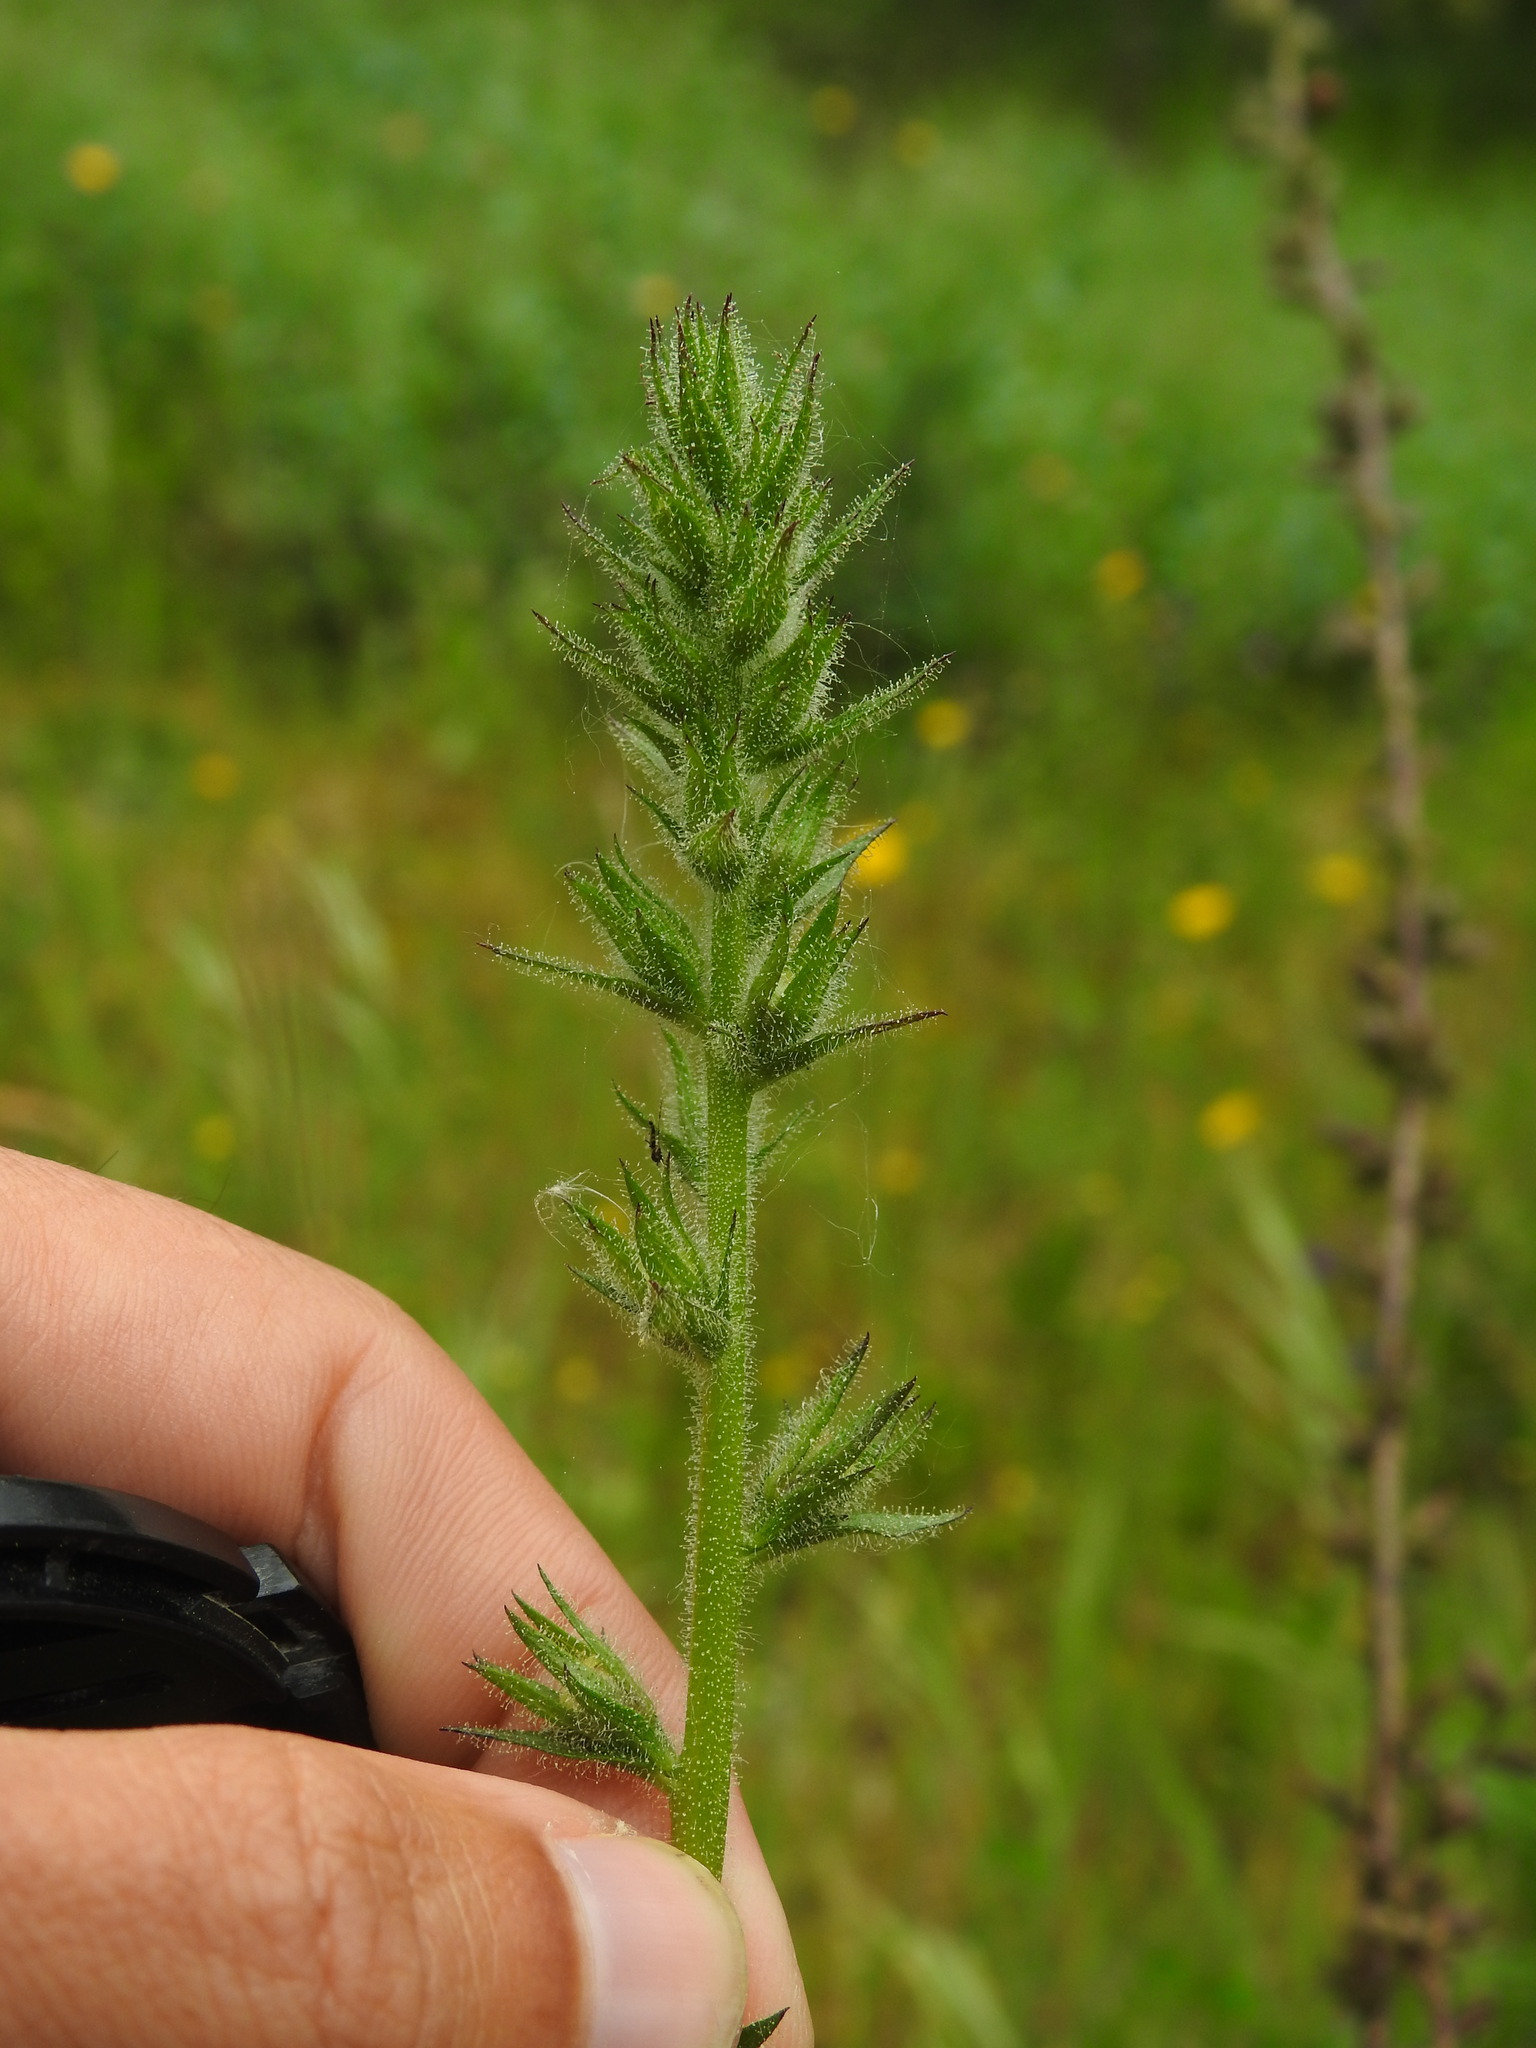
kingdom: Plantae
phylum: Tracheophyta
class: Magnoliopsida
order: Lamiales
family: Scrophulariaceae
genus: Verbascum
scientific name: Verbascum virgatum
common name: Twiggy mullein
